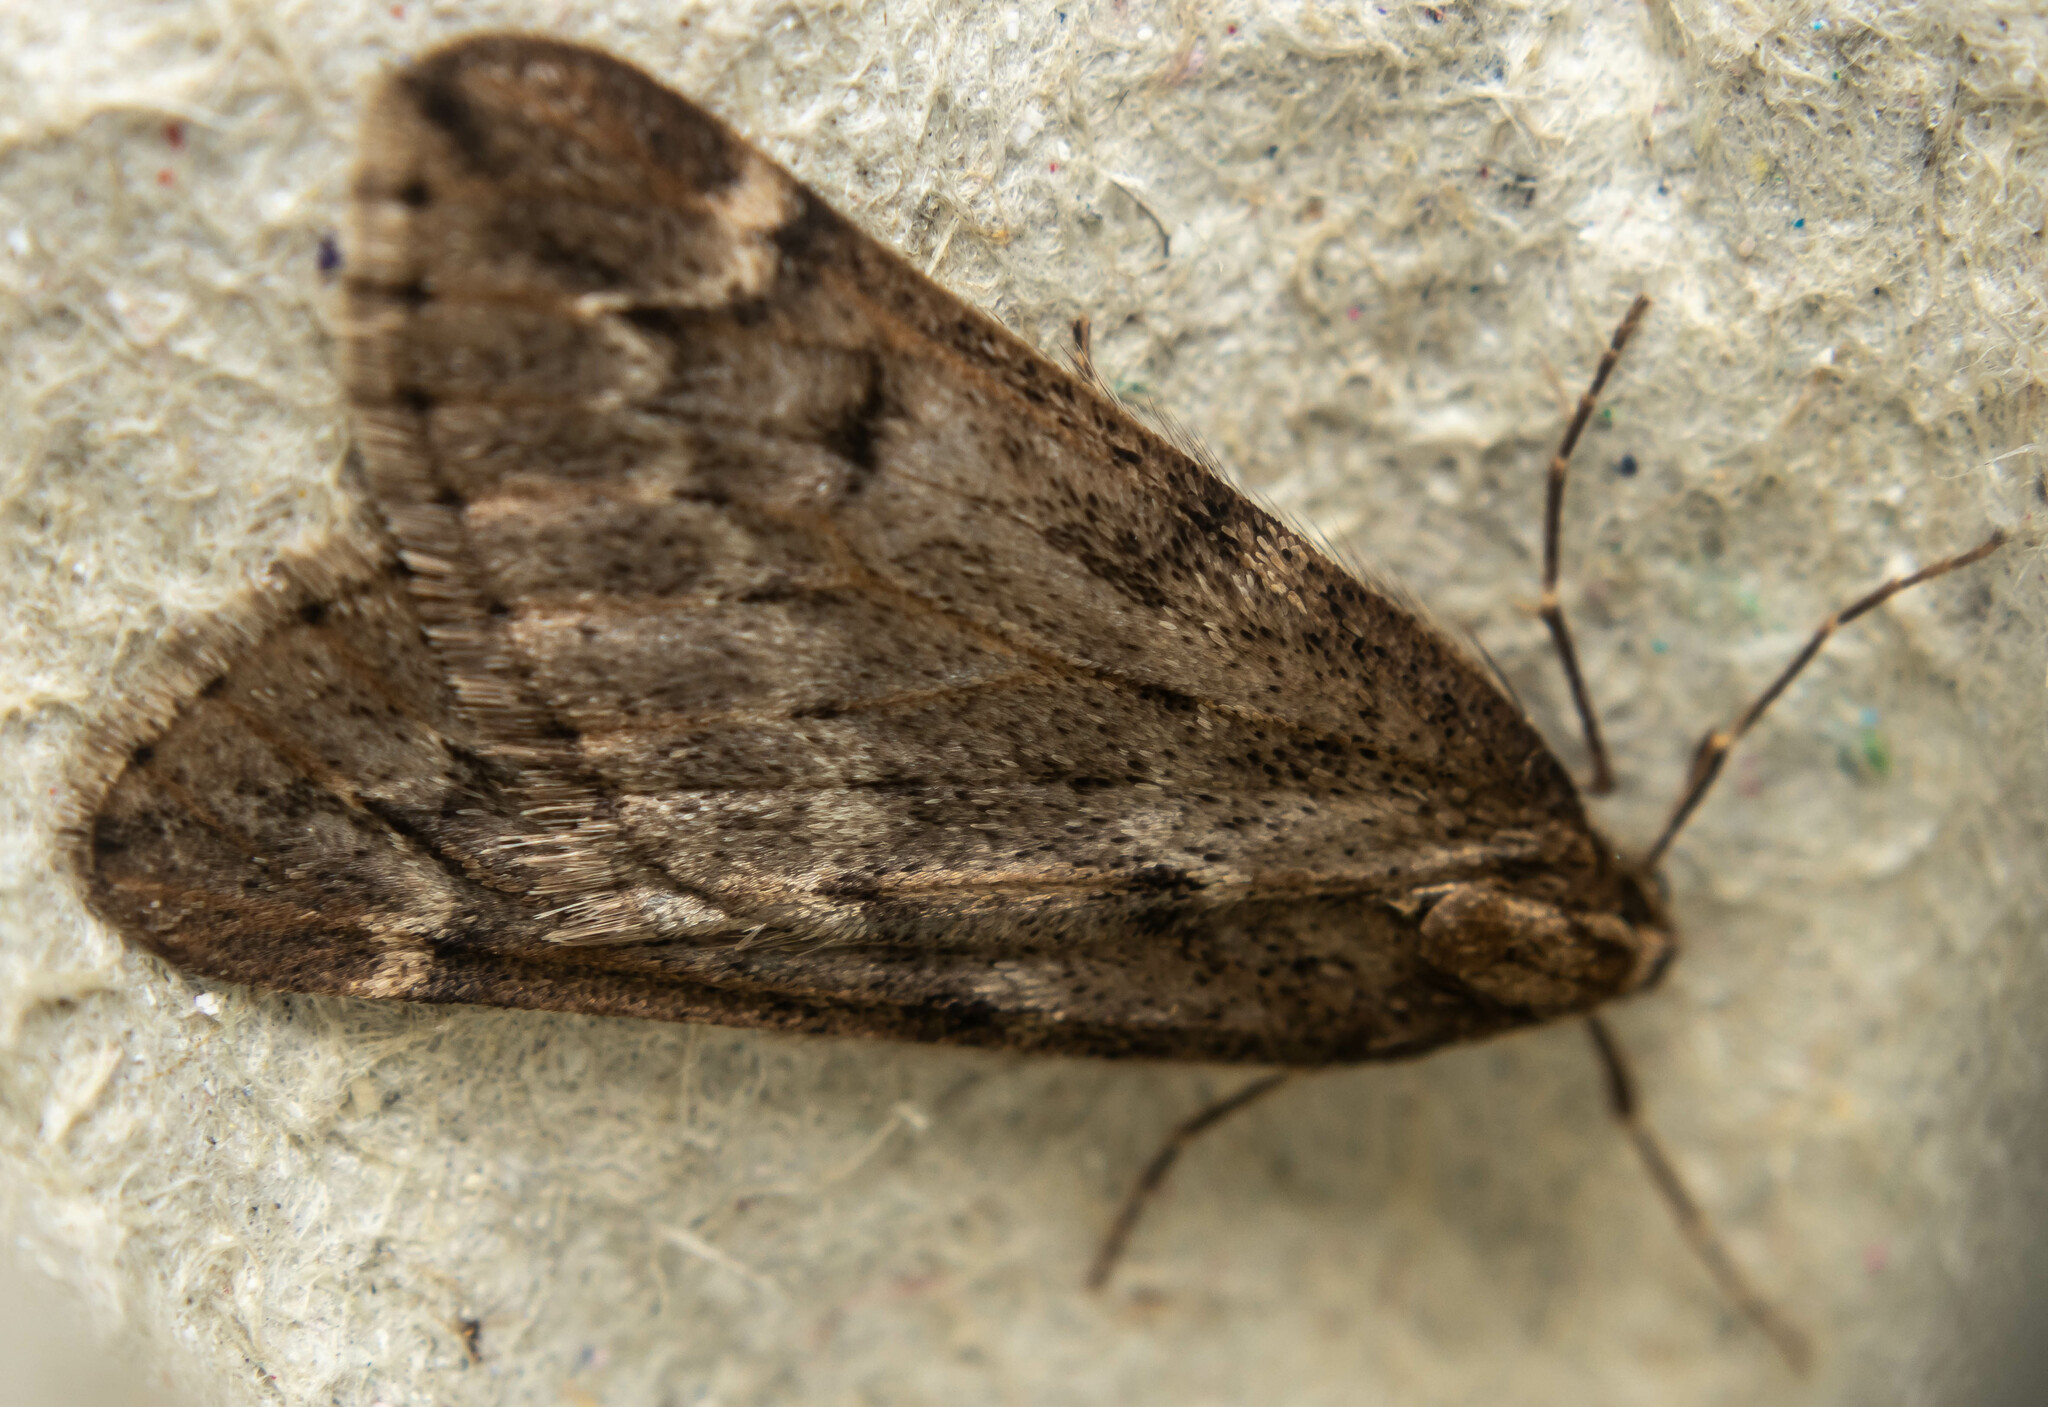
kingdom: Animalia
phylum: Arthropoda
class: Insecta
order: Lepidoptera
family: Geometridae
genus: Alsophila
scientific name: Alsophila aescularia
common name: March moth
